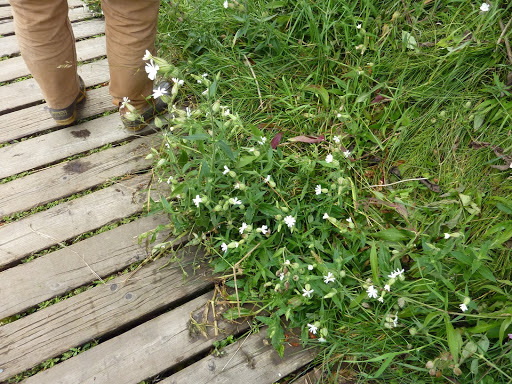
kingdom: Plantae
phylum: Tracheophyta
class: Magnoliopsida
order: Caryophyllales
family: Caryophyllaceae
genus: Silene
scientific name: Silene latifolia
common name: White campion
